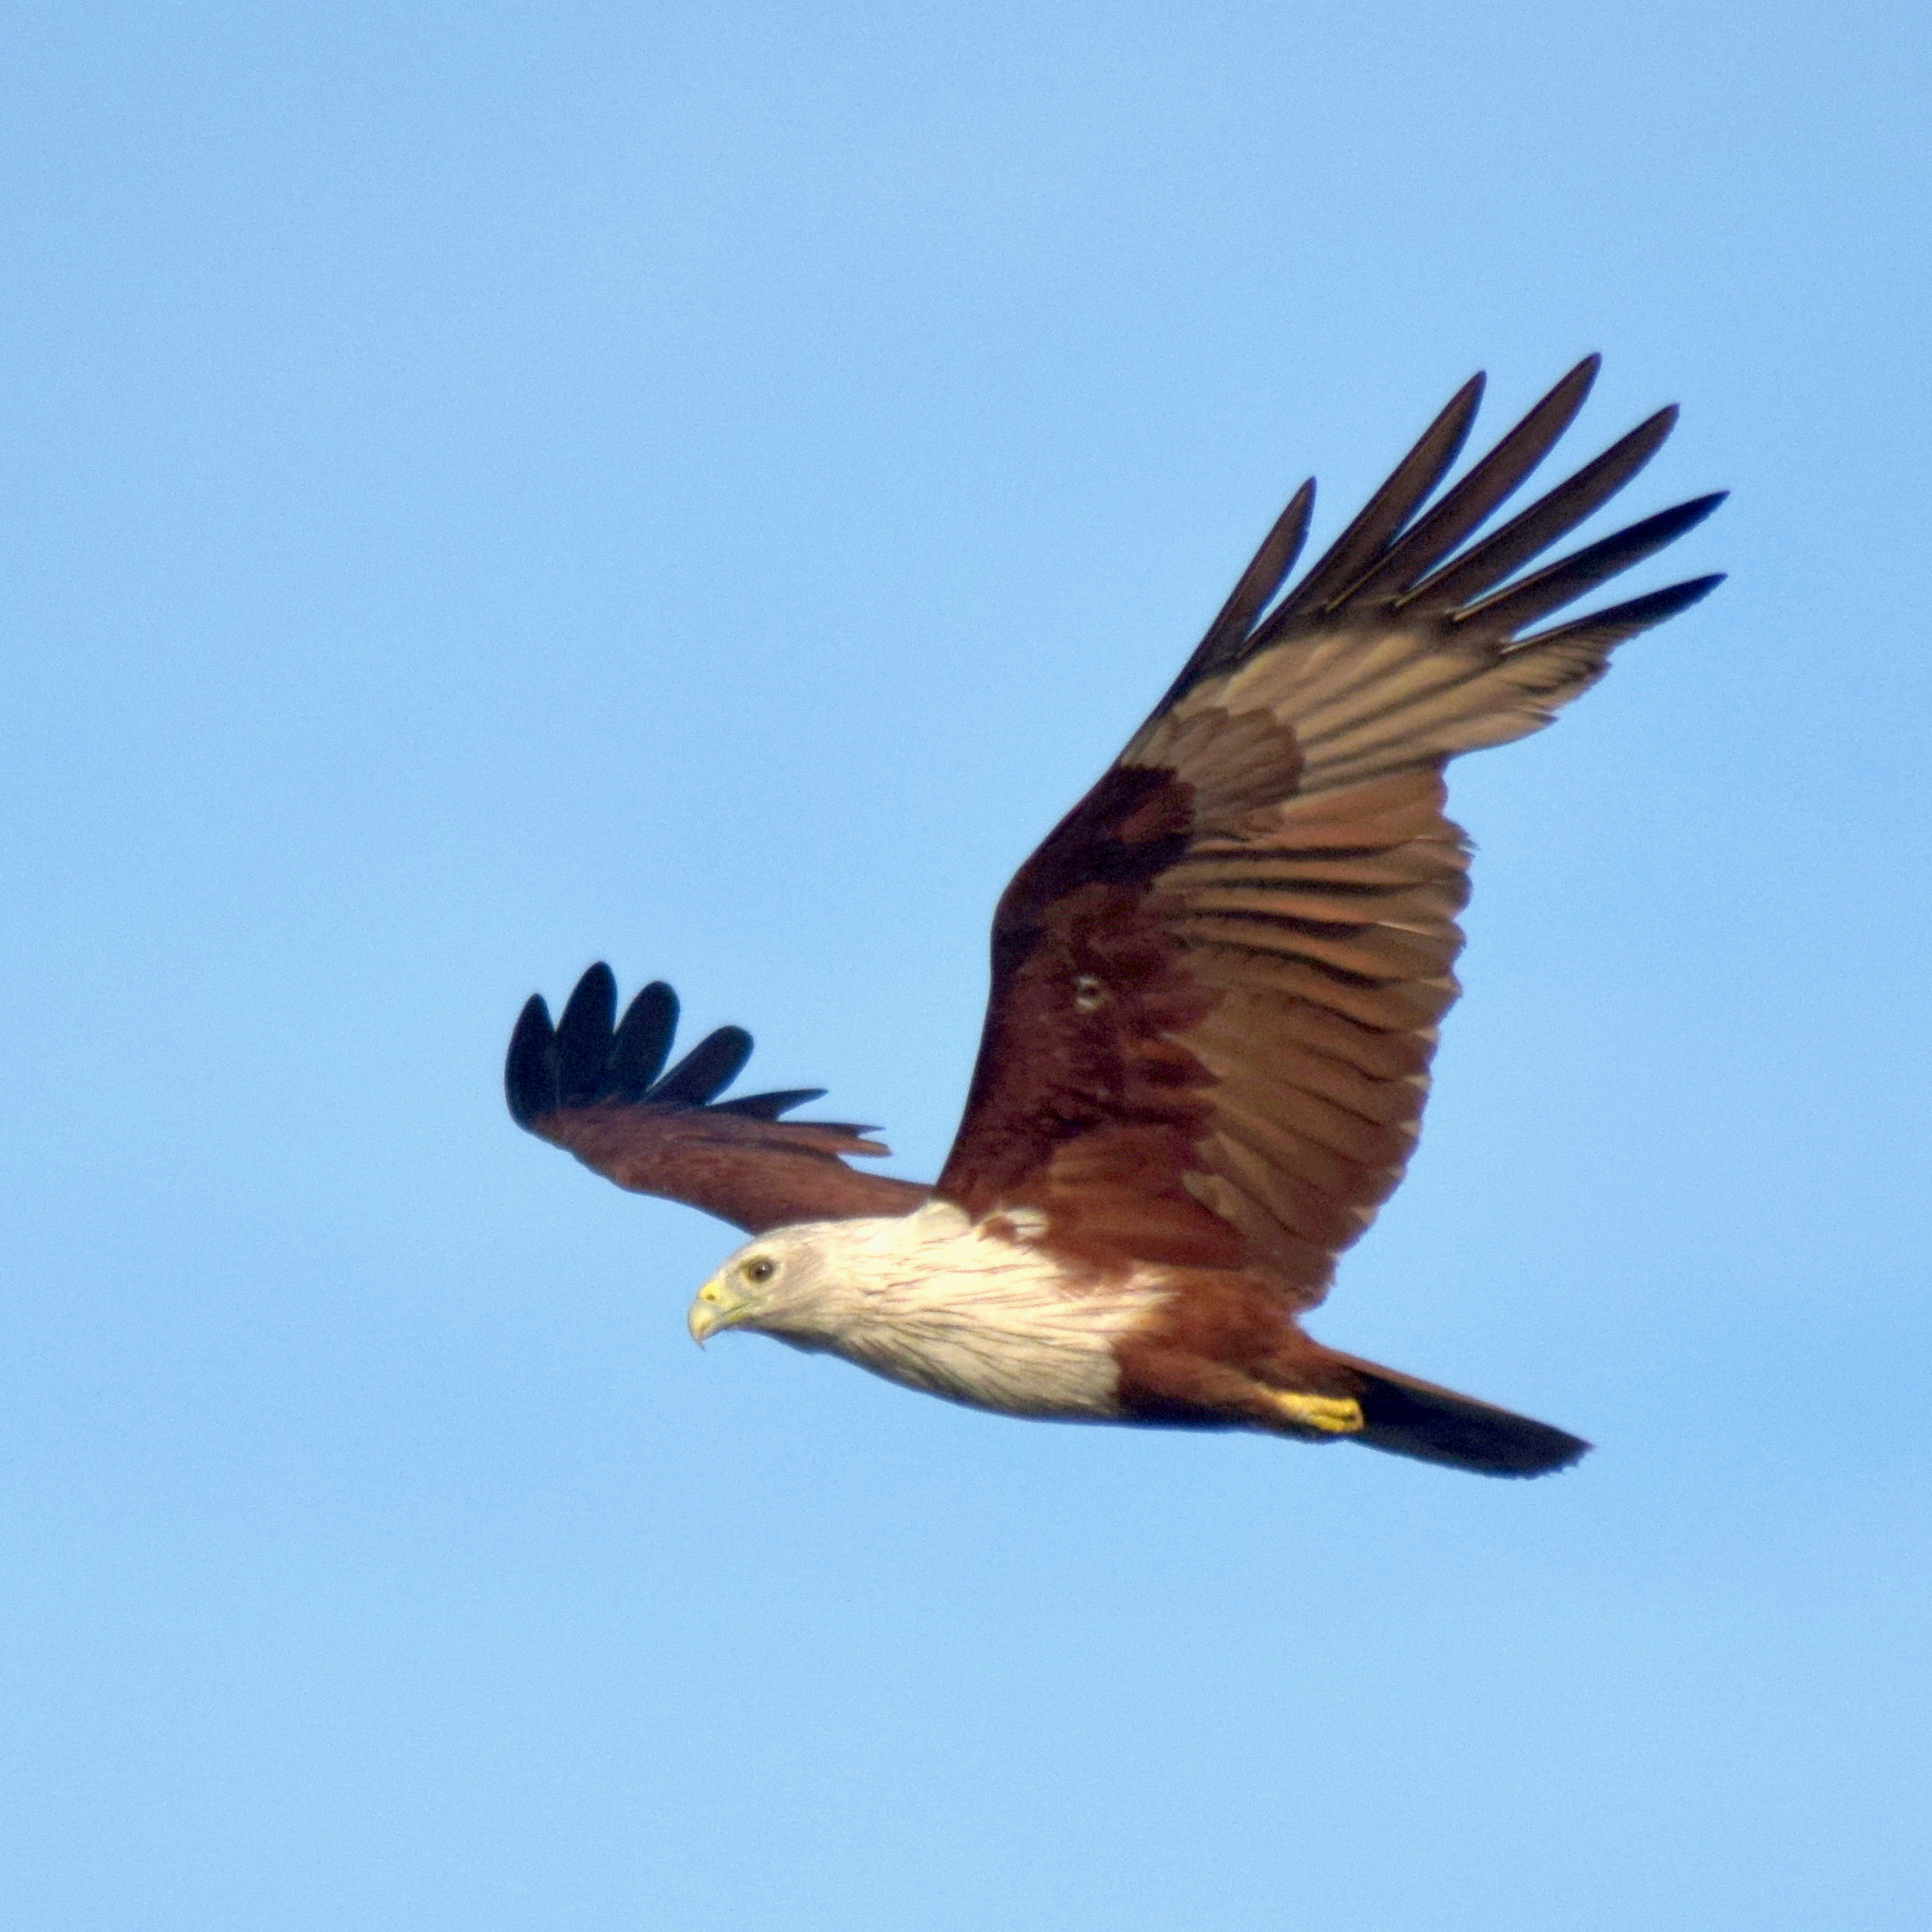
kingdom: Animalia
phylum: Chordata
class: Aves
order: Accipitriformes
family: Accipitridae
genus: Haliastur
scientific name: Haliastur indus
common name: Brahminy kite
